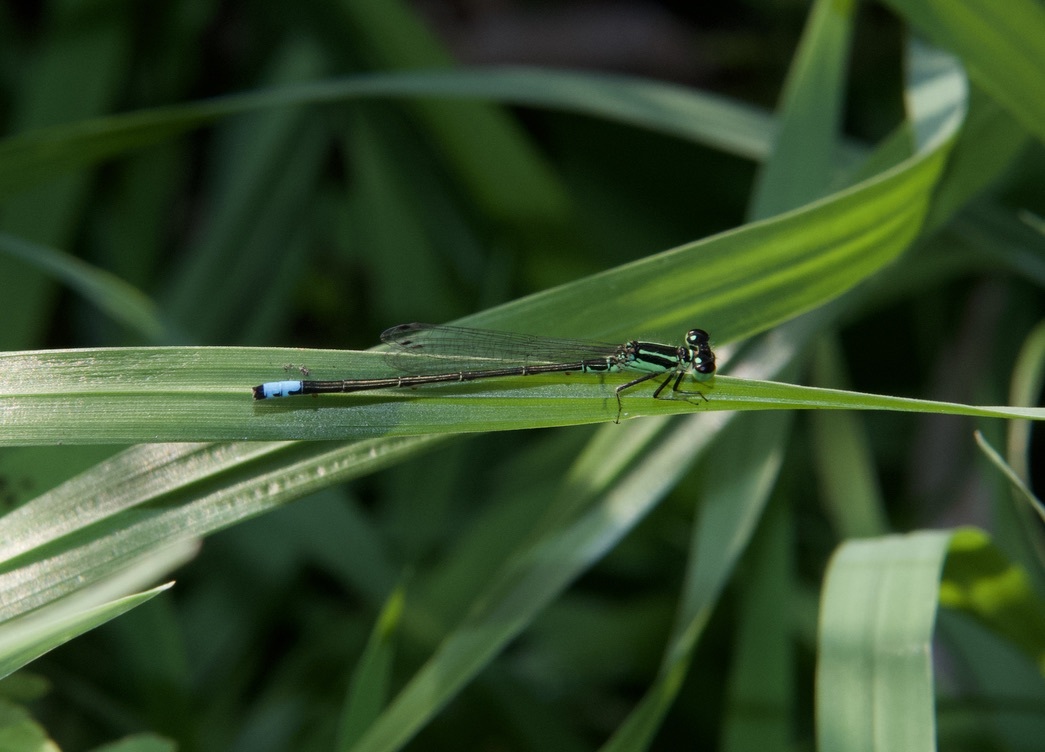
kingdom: Animalia
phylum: Arthropoda
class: Insecta
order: Odonata
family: Coenagrionidae
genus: Ischnura
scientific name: Ischnura verticalis
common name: Eastern forktail
